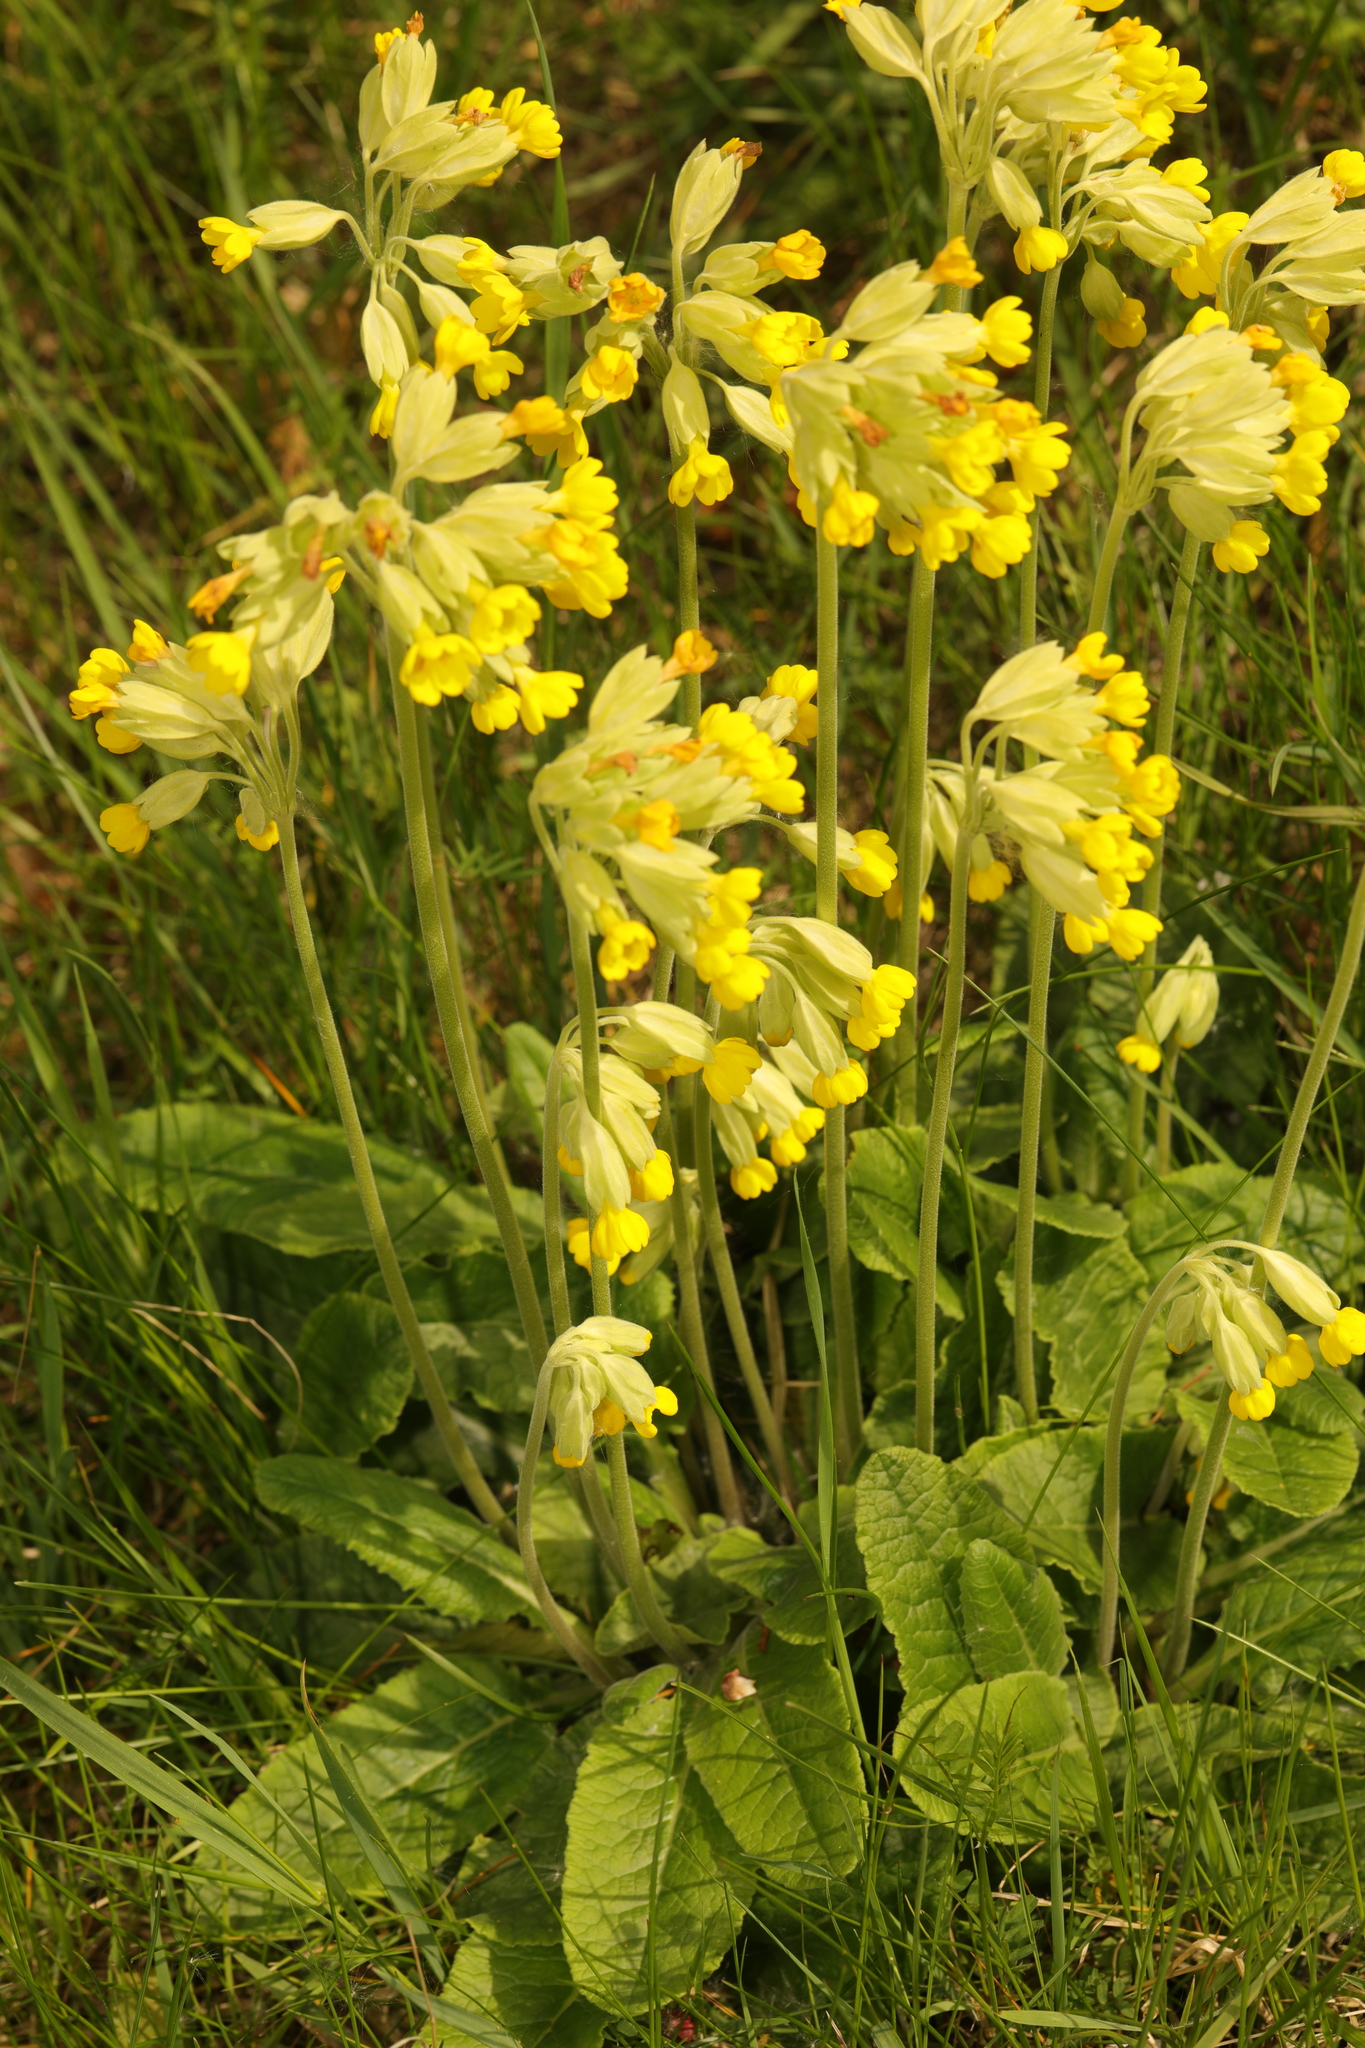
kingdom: Plantae
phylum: Tracheophyta
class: Magnoliopsida
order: Ericales
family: Primulaceae
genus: Primula
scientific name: Primula veris
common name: Cowslip
